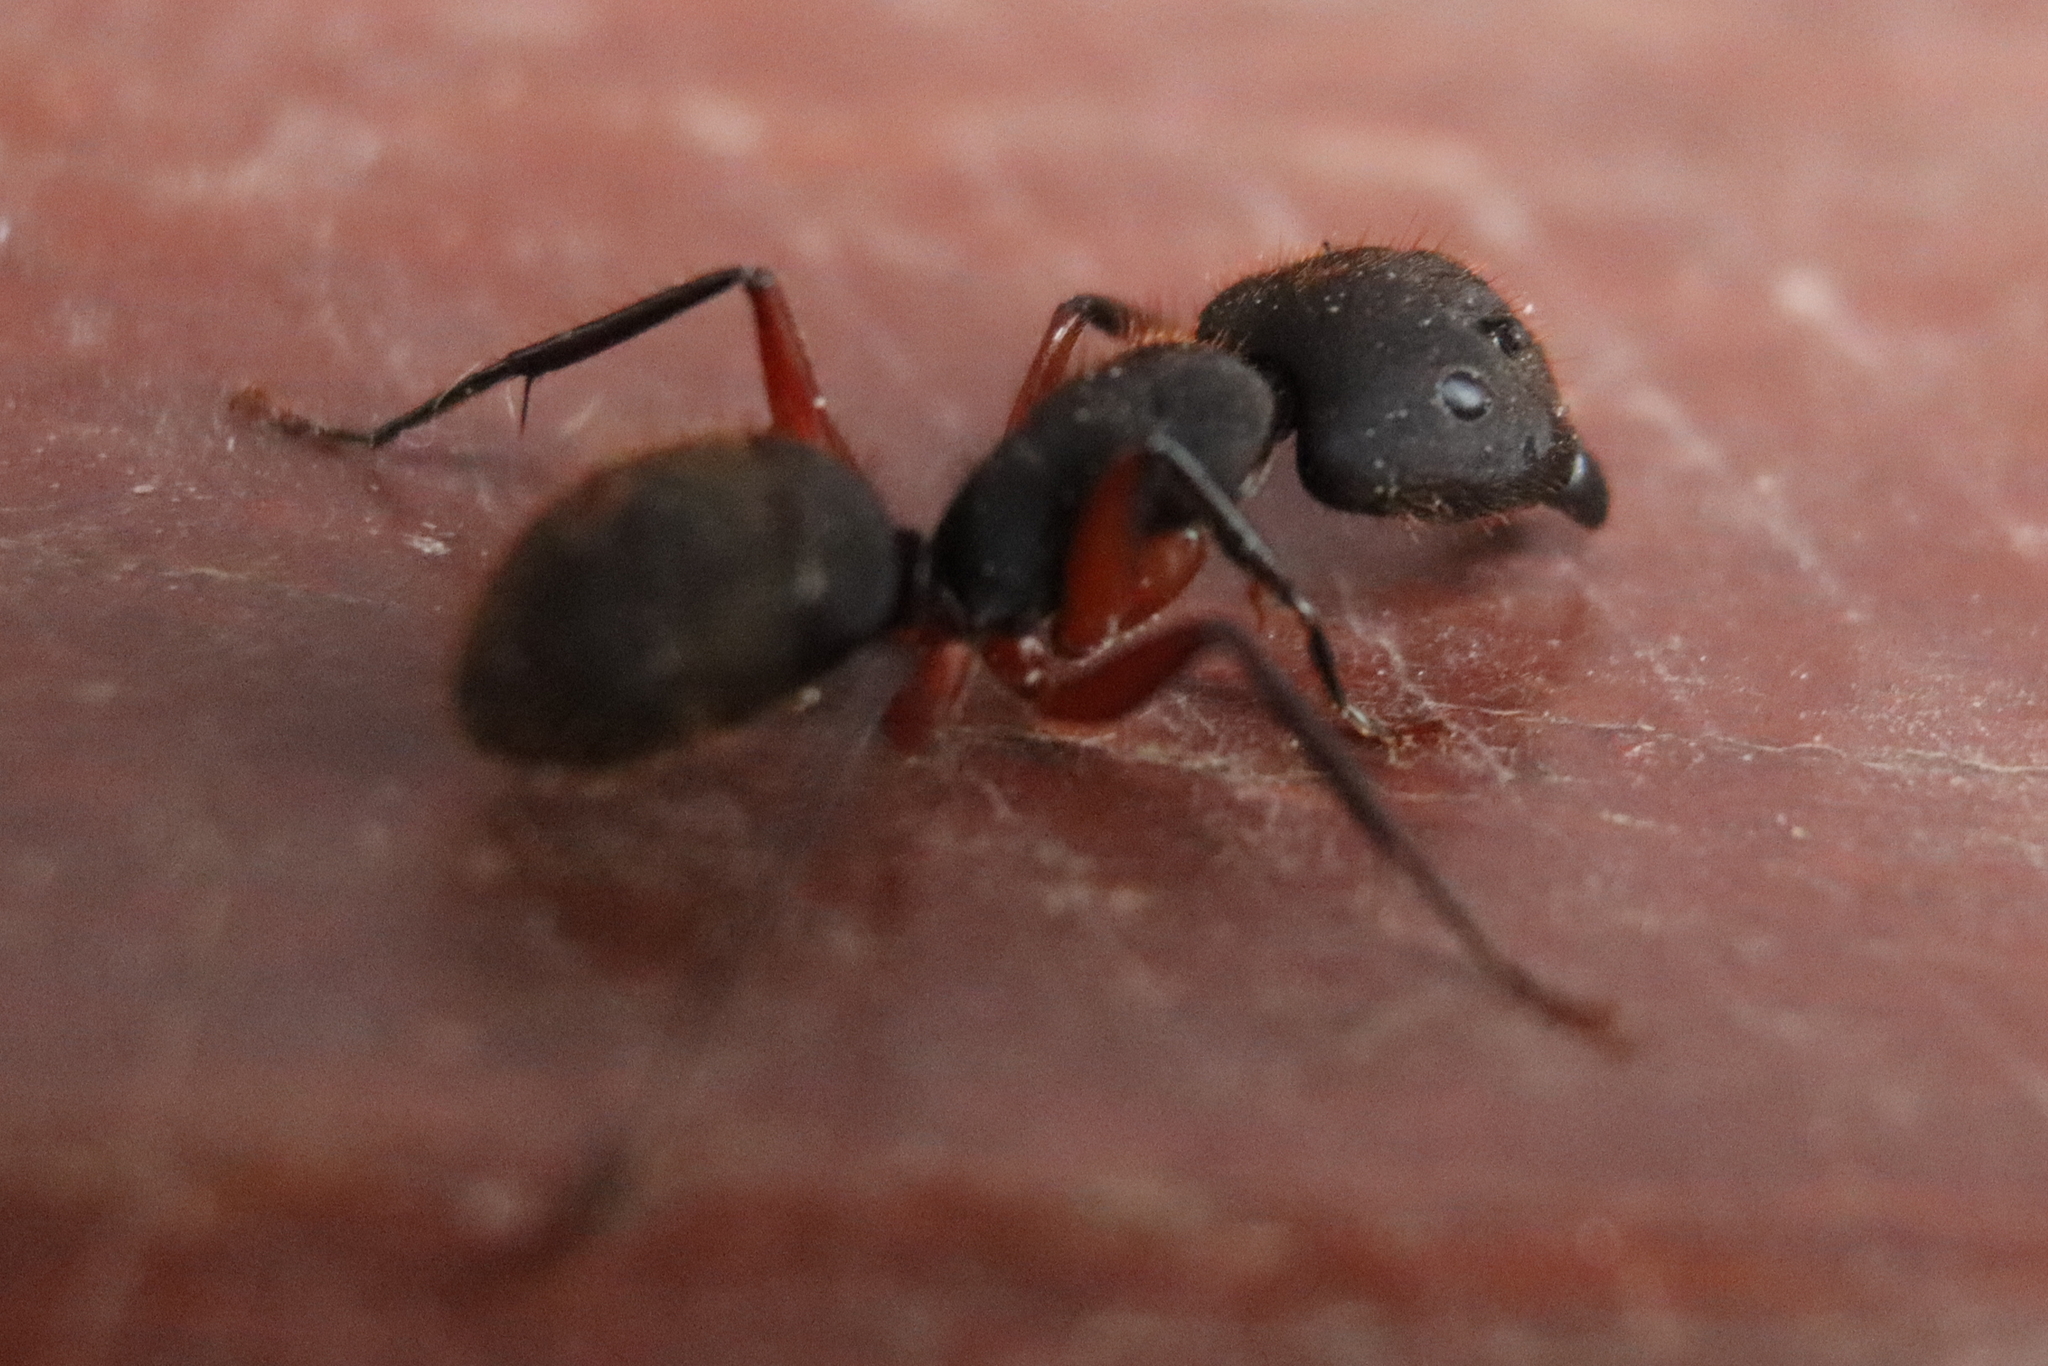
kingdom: Animalia
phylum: Arthropoda
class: Insecta
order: Hymenoptera
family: Formicidae
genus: Camponotus
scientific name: Camponotus rufipes
